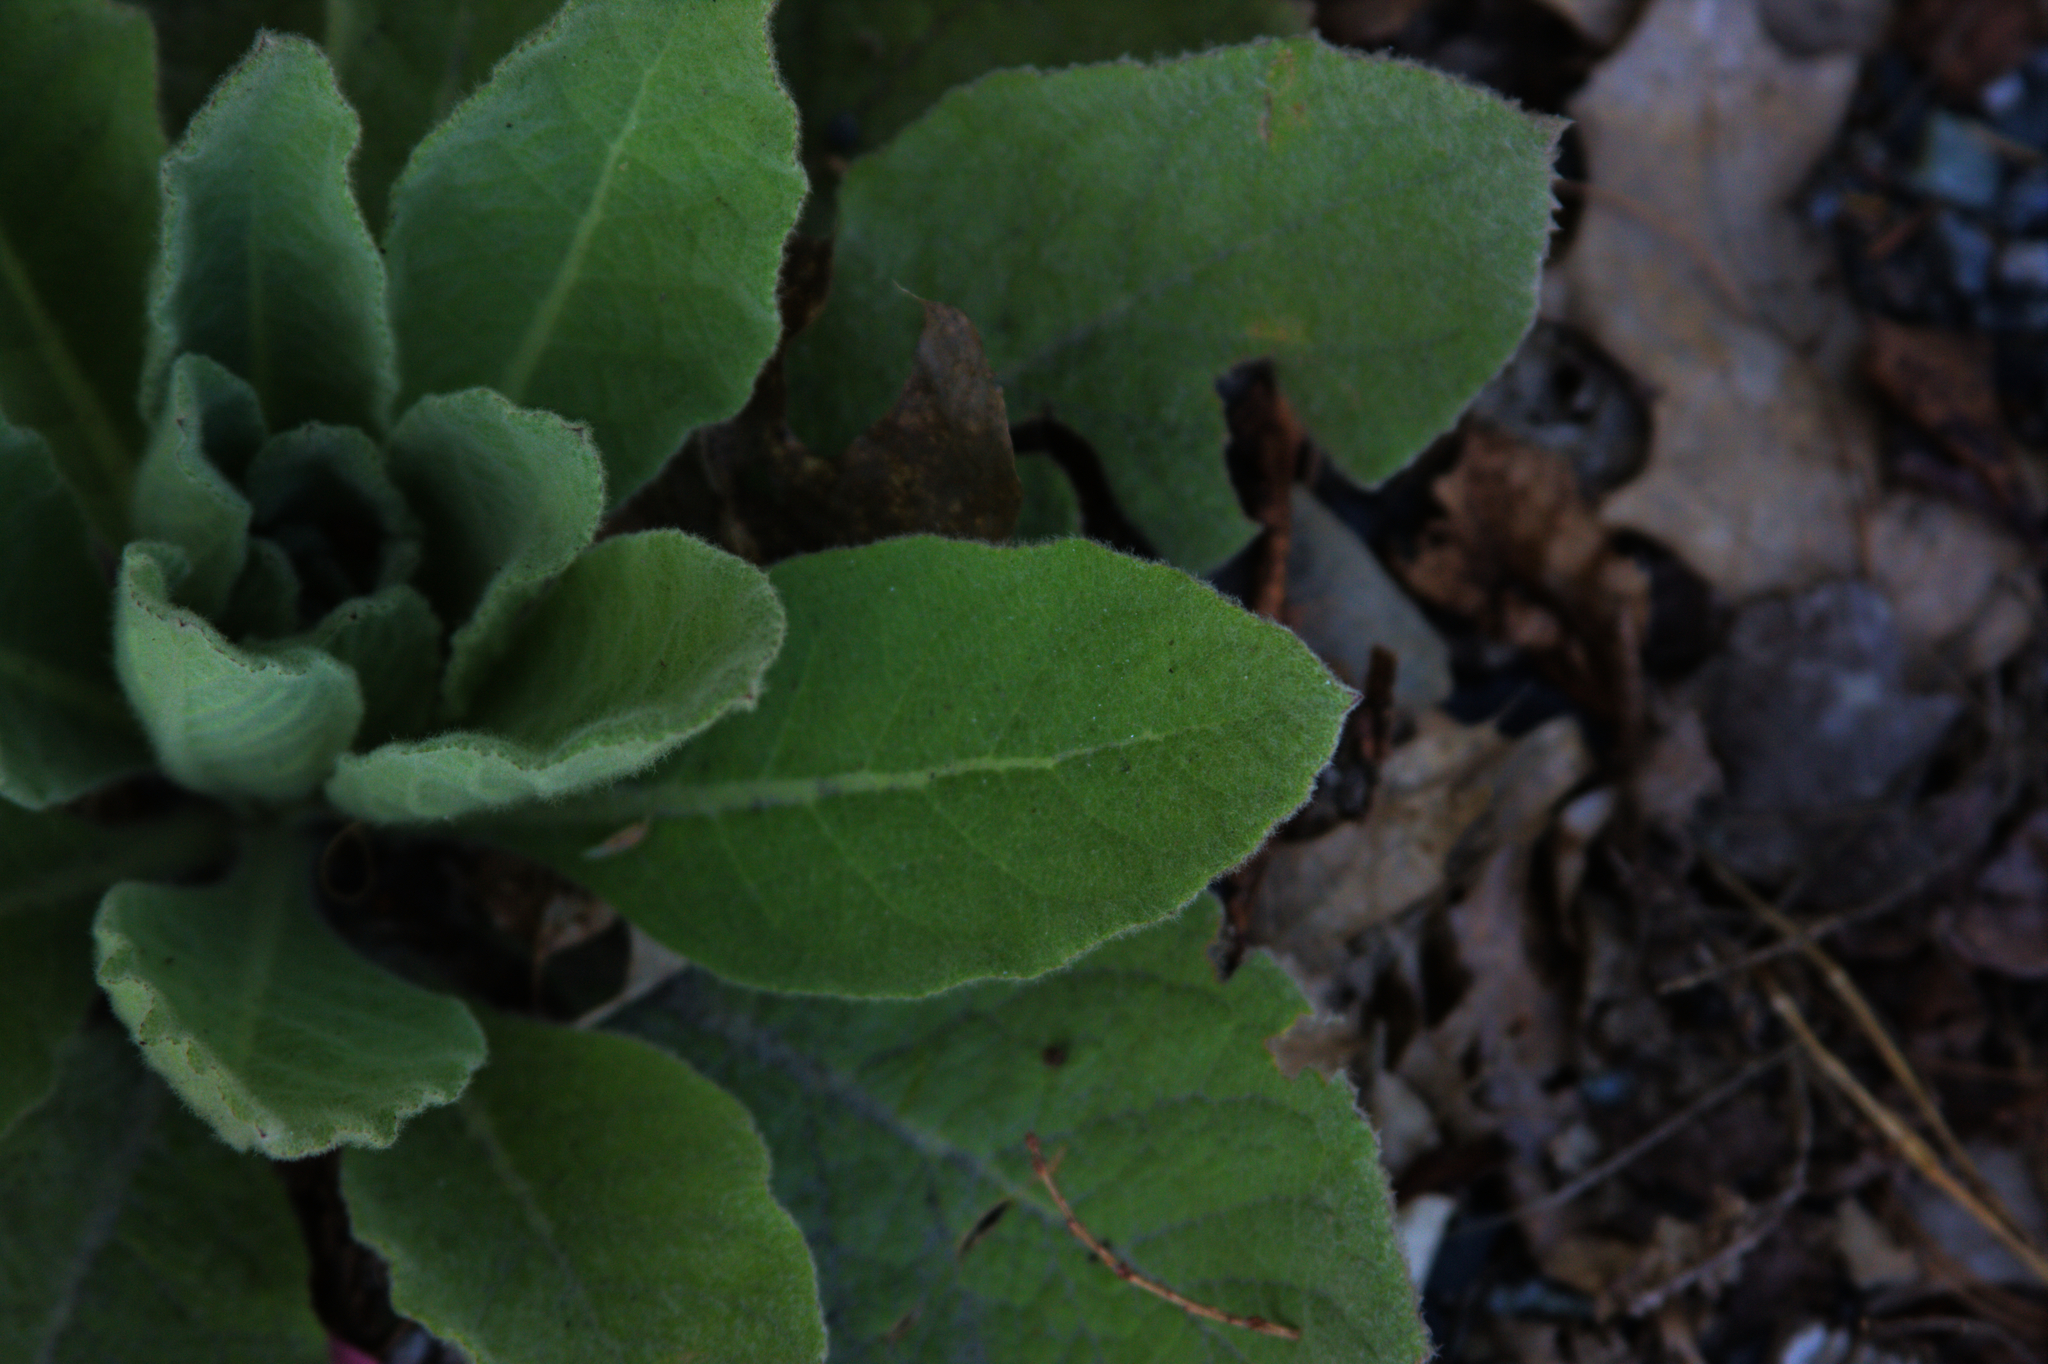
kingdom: Plantae
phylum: Tracheophyta
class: Magnoliopsida
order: Lamiales
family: Scrophulariaceae
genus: Verbascum
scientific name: Verbascum thapsus
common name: Common mullein
